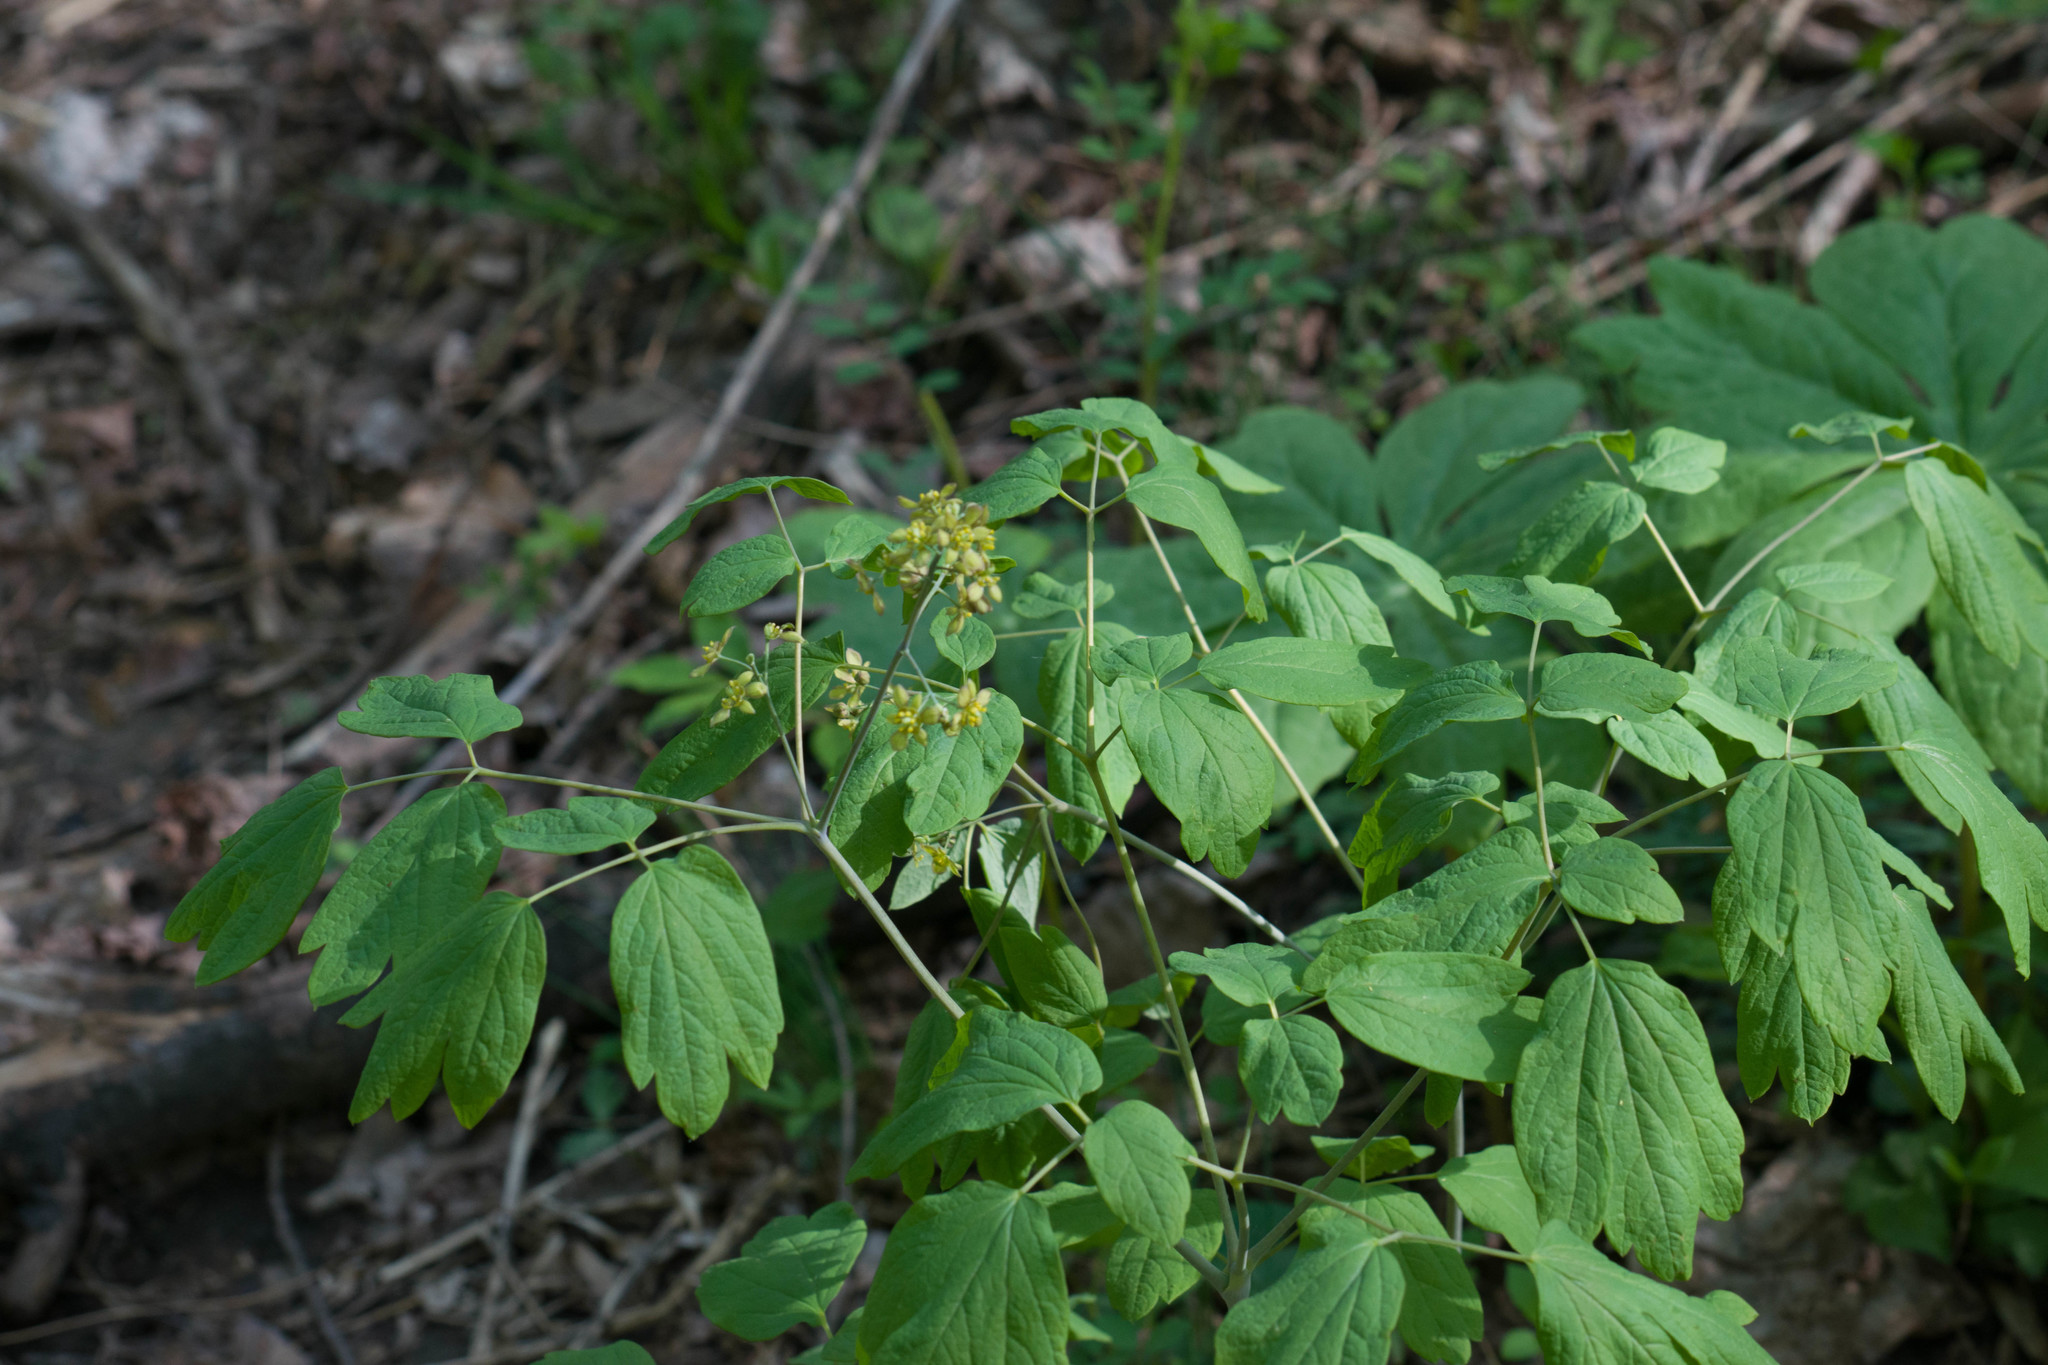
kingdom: Plantae
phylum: Tracheophyta
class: Magnoliopsida
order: Ranunculales
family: Berberidaceae
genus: Caulophyllum
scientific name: Caulophyllum thalictroides
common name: Blue cohosh
